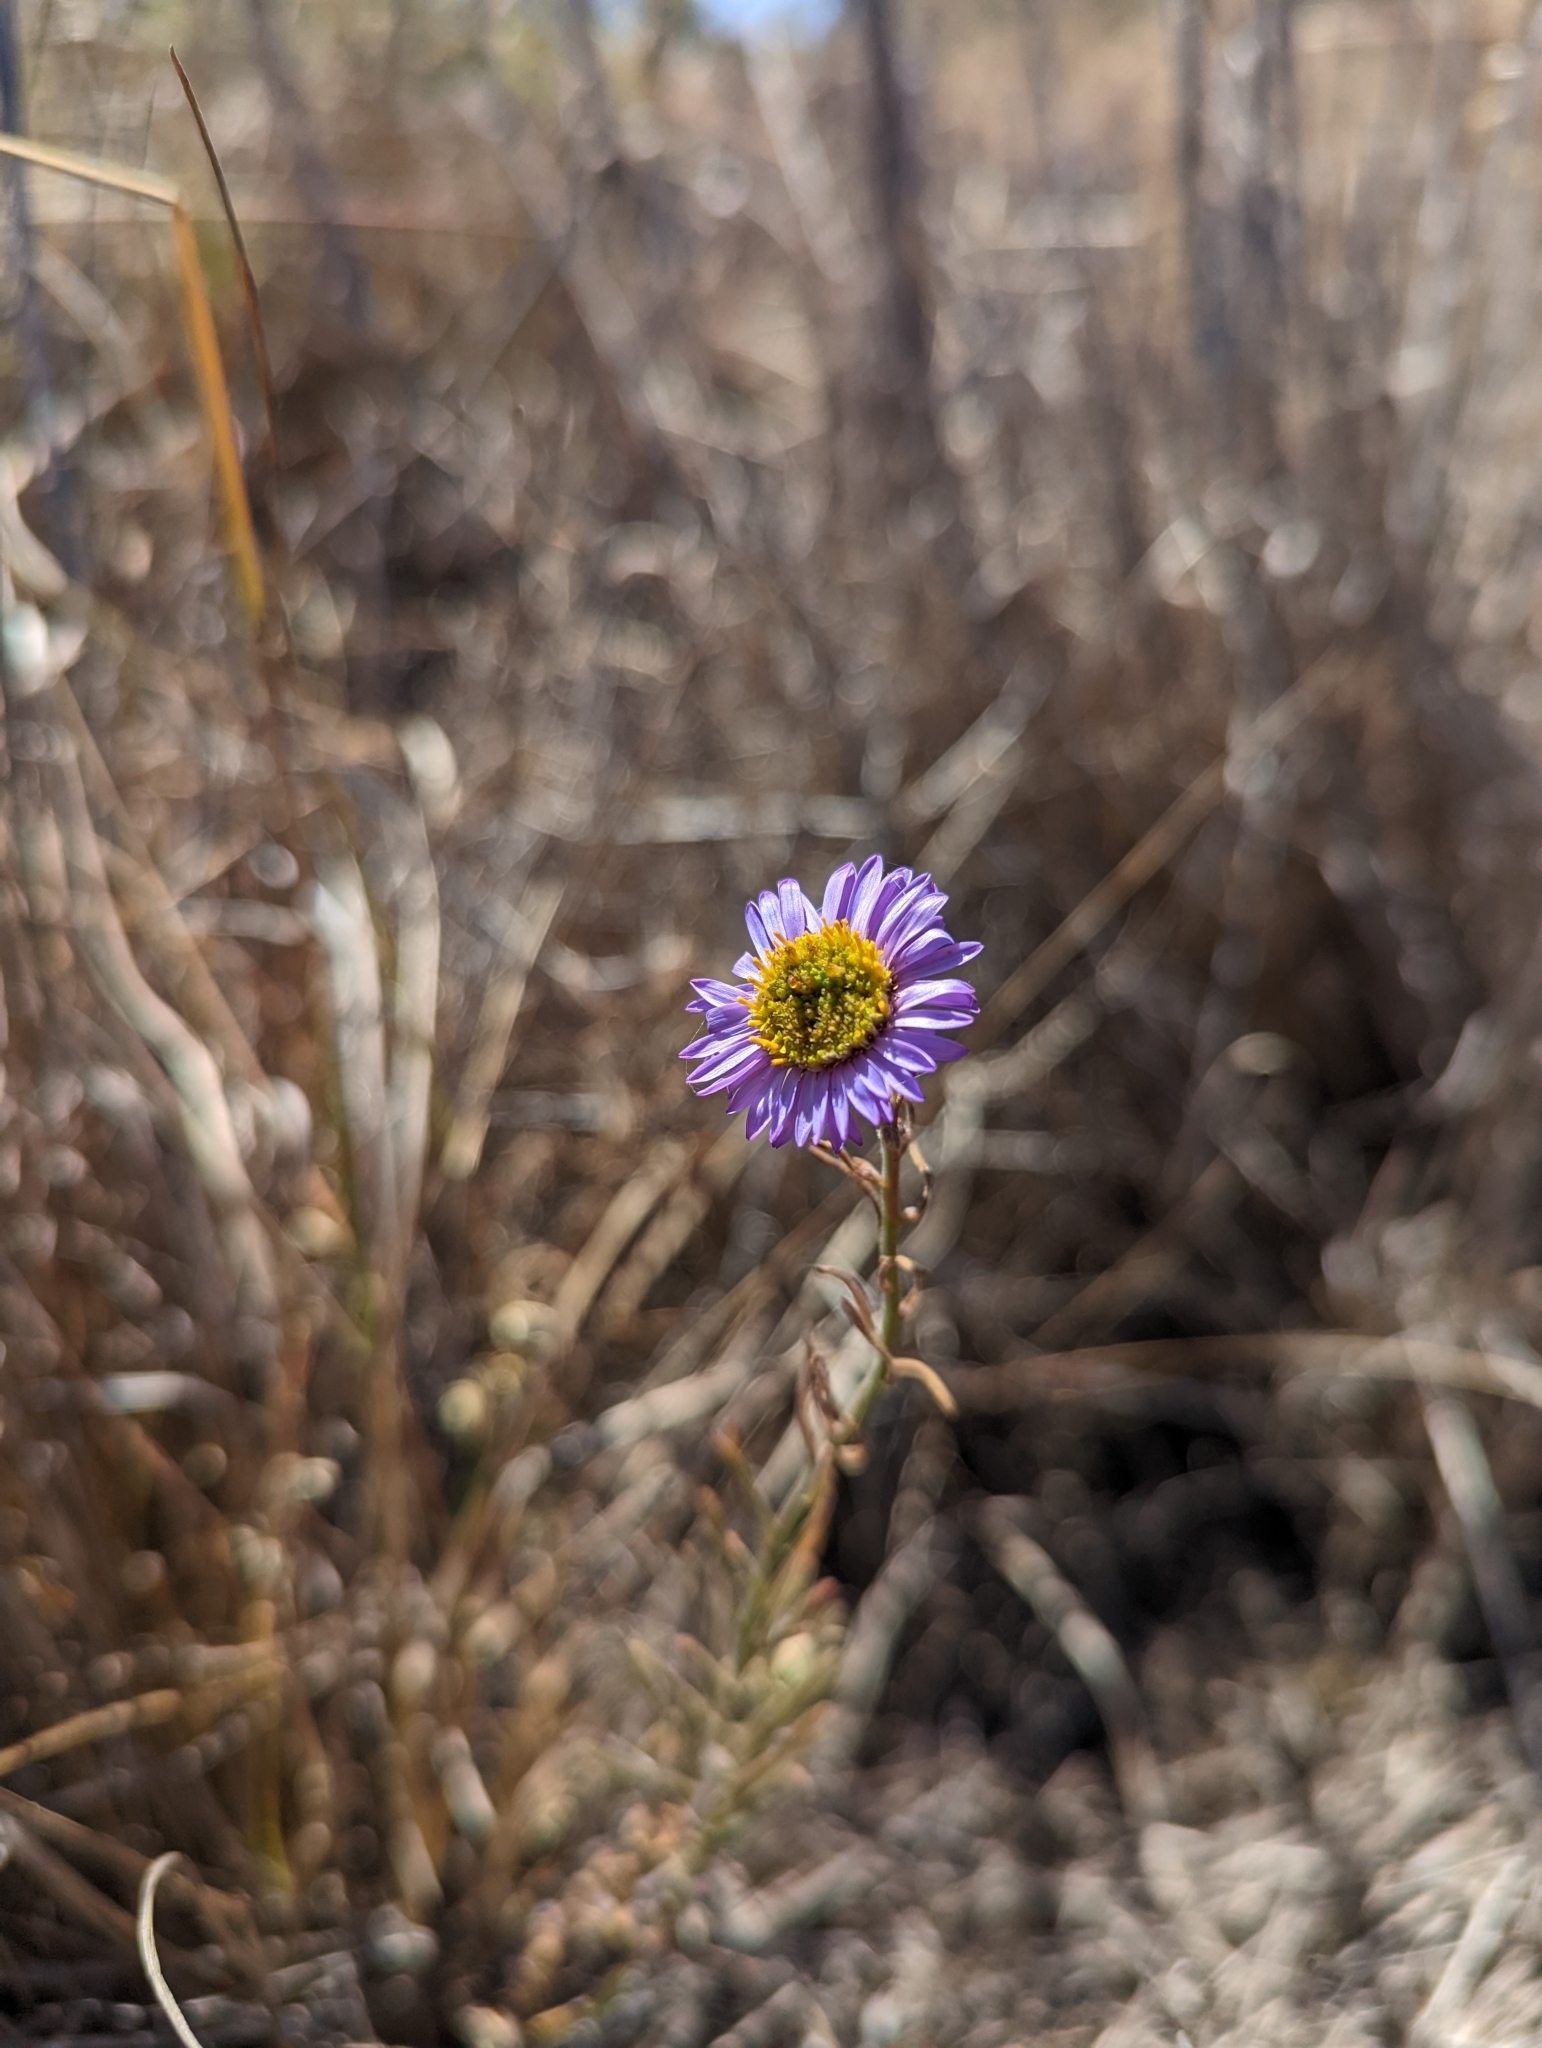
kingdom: Plantae
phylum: Tracheophyta
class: Magnoliopsida
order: Asterales
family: Asteraceae
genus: Erigeron
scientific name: Erigeron blochmaniae
